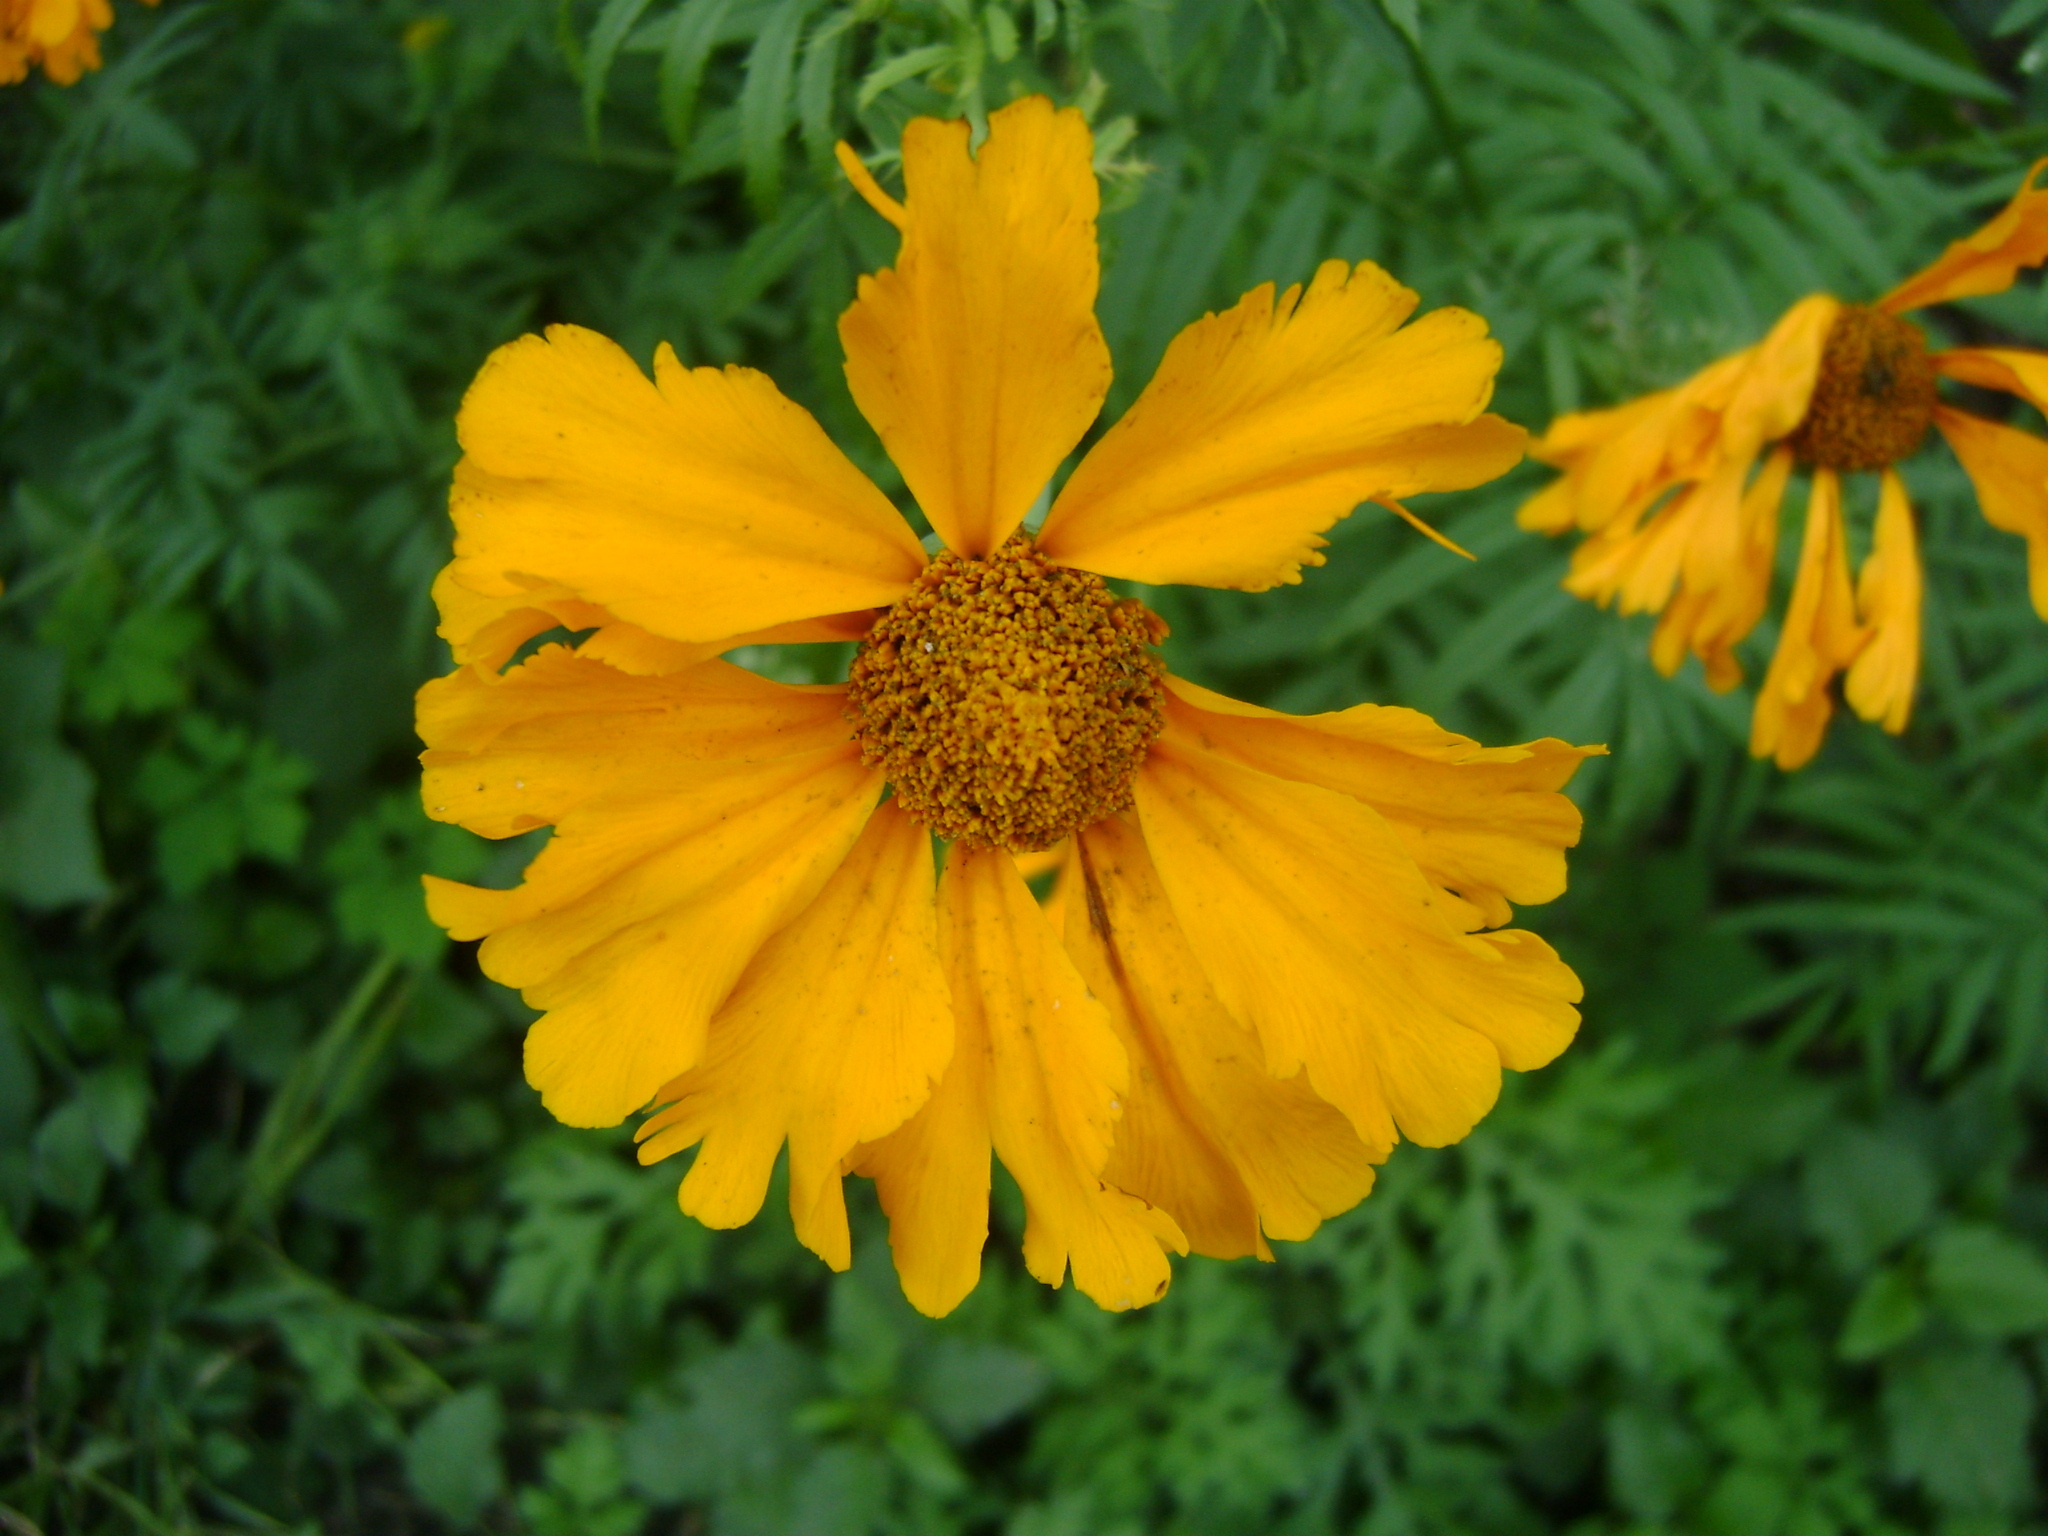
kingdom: Plantae
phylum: Tracheophyta
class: Magnoliopsida
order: Asterales
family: Asteraceae
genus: Tagetes
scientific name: Tagetes erecta
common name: African marigold
